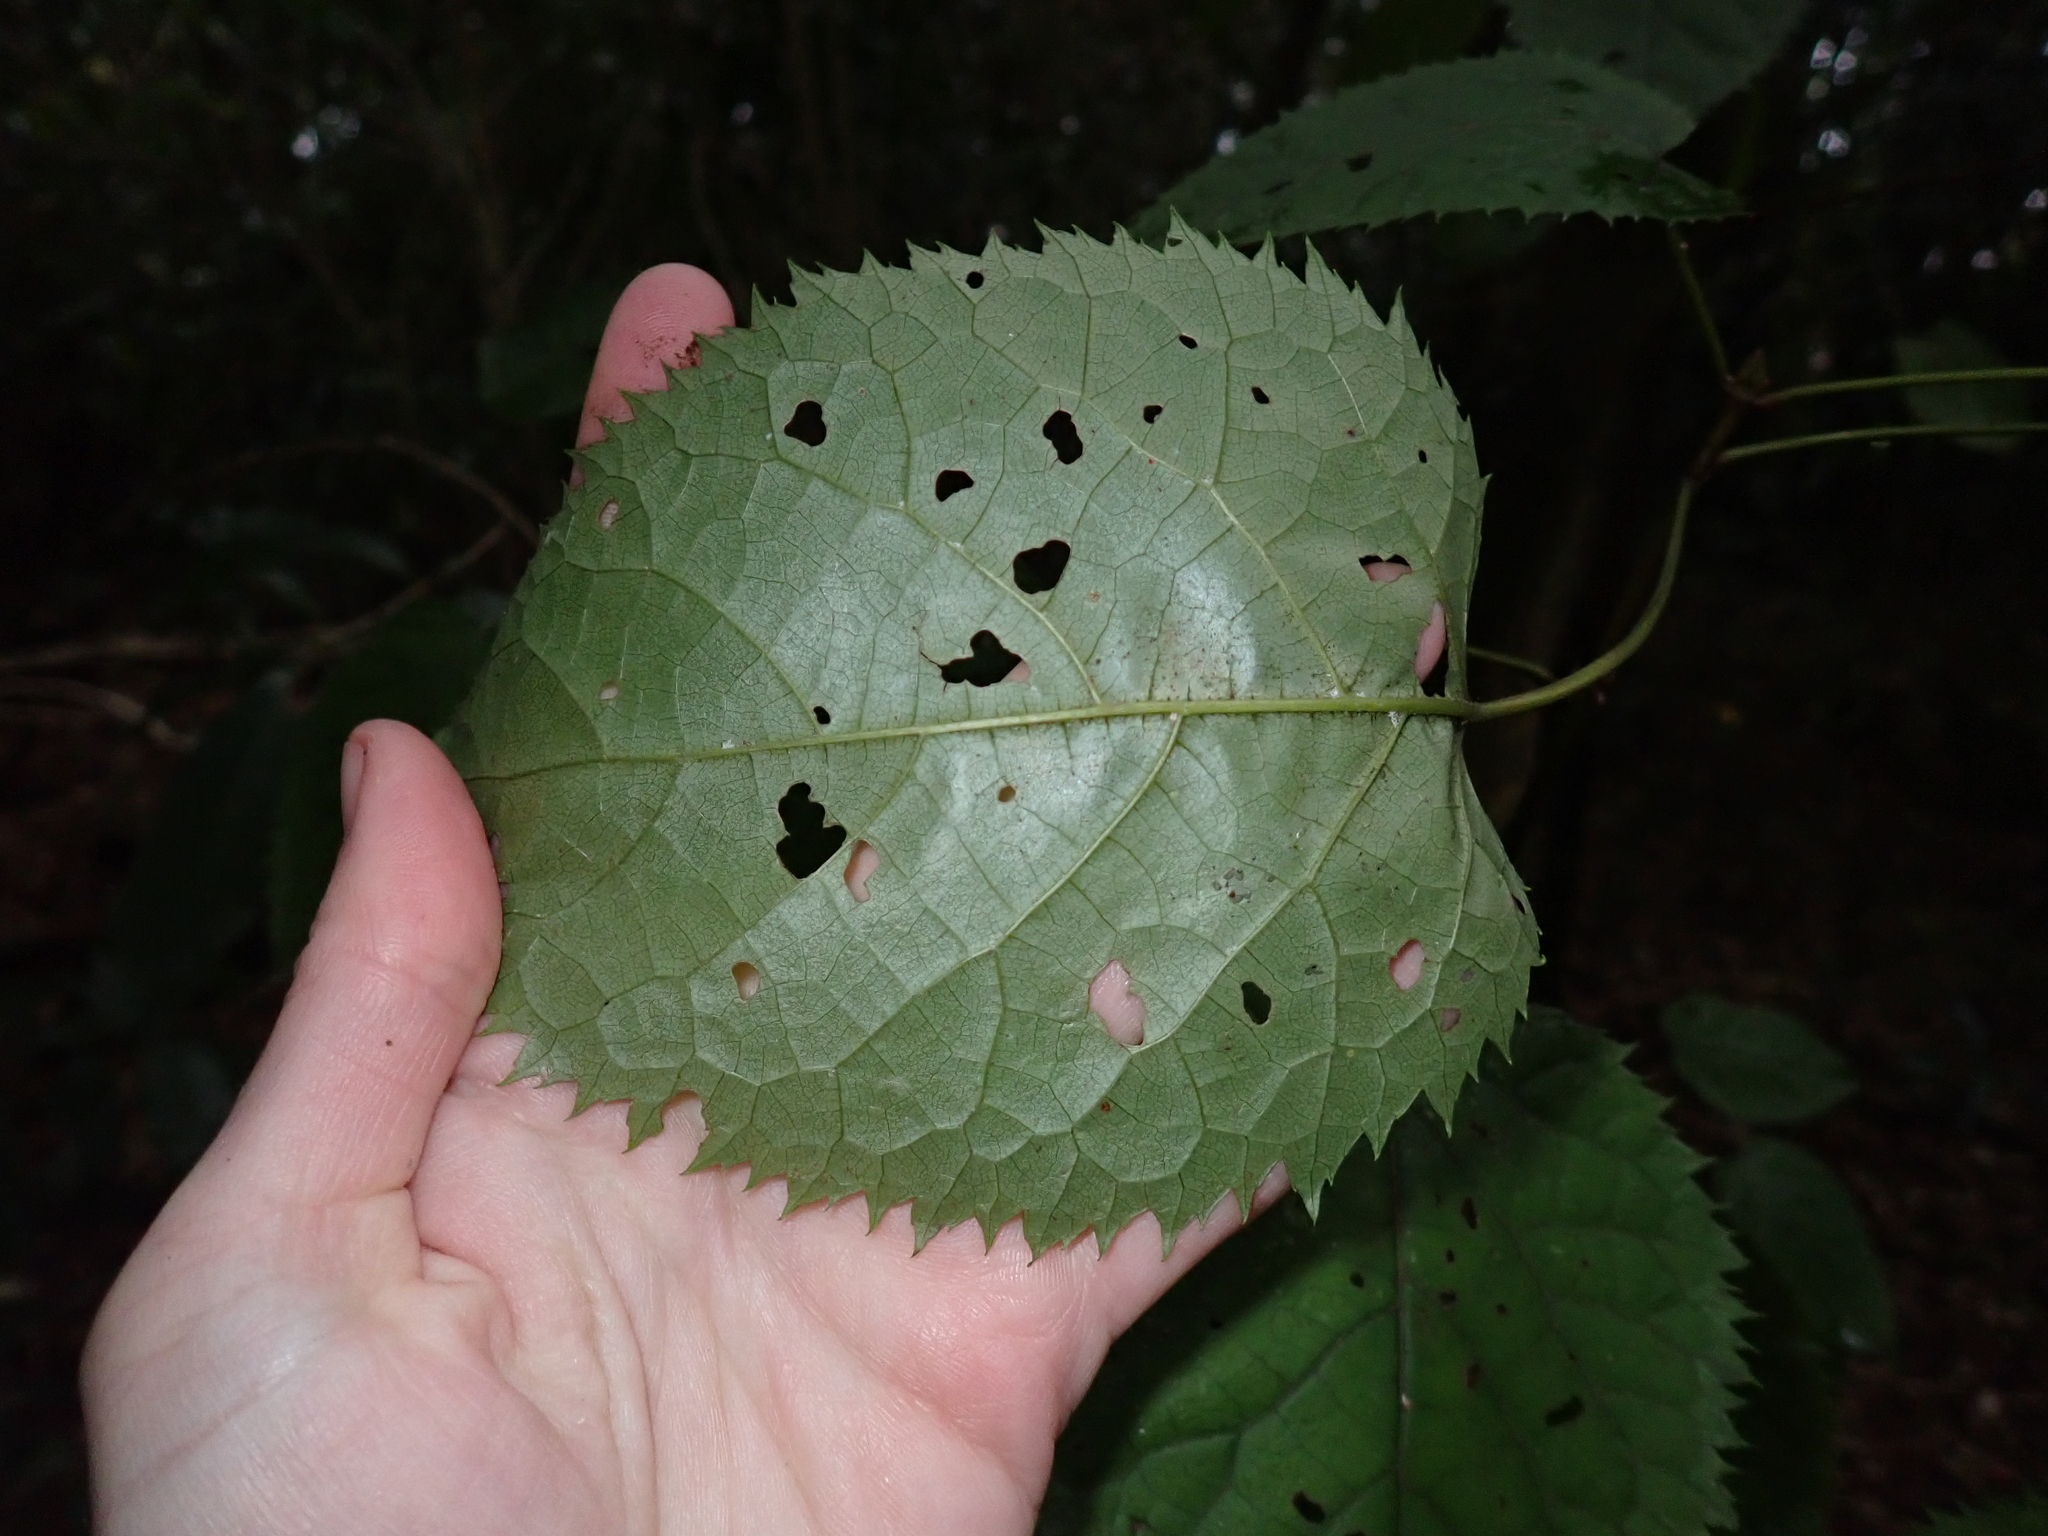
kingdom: Plantae
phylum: Tracheophyta
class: Magnoliopsida
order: Oxalidales
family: Elaeocarpaceae
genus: Aristotelia
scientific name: Aristotelia serrata
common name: New zealand wineberry
